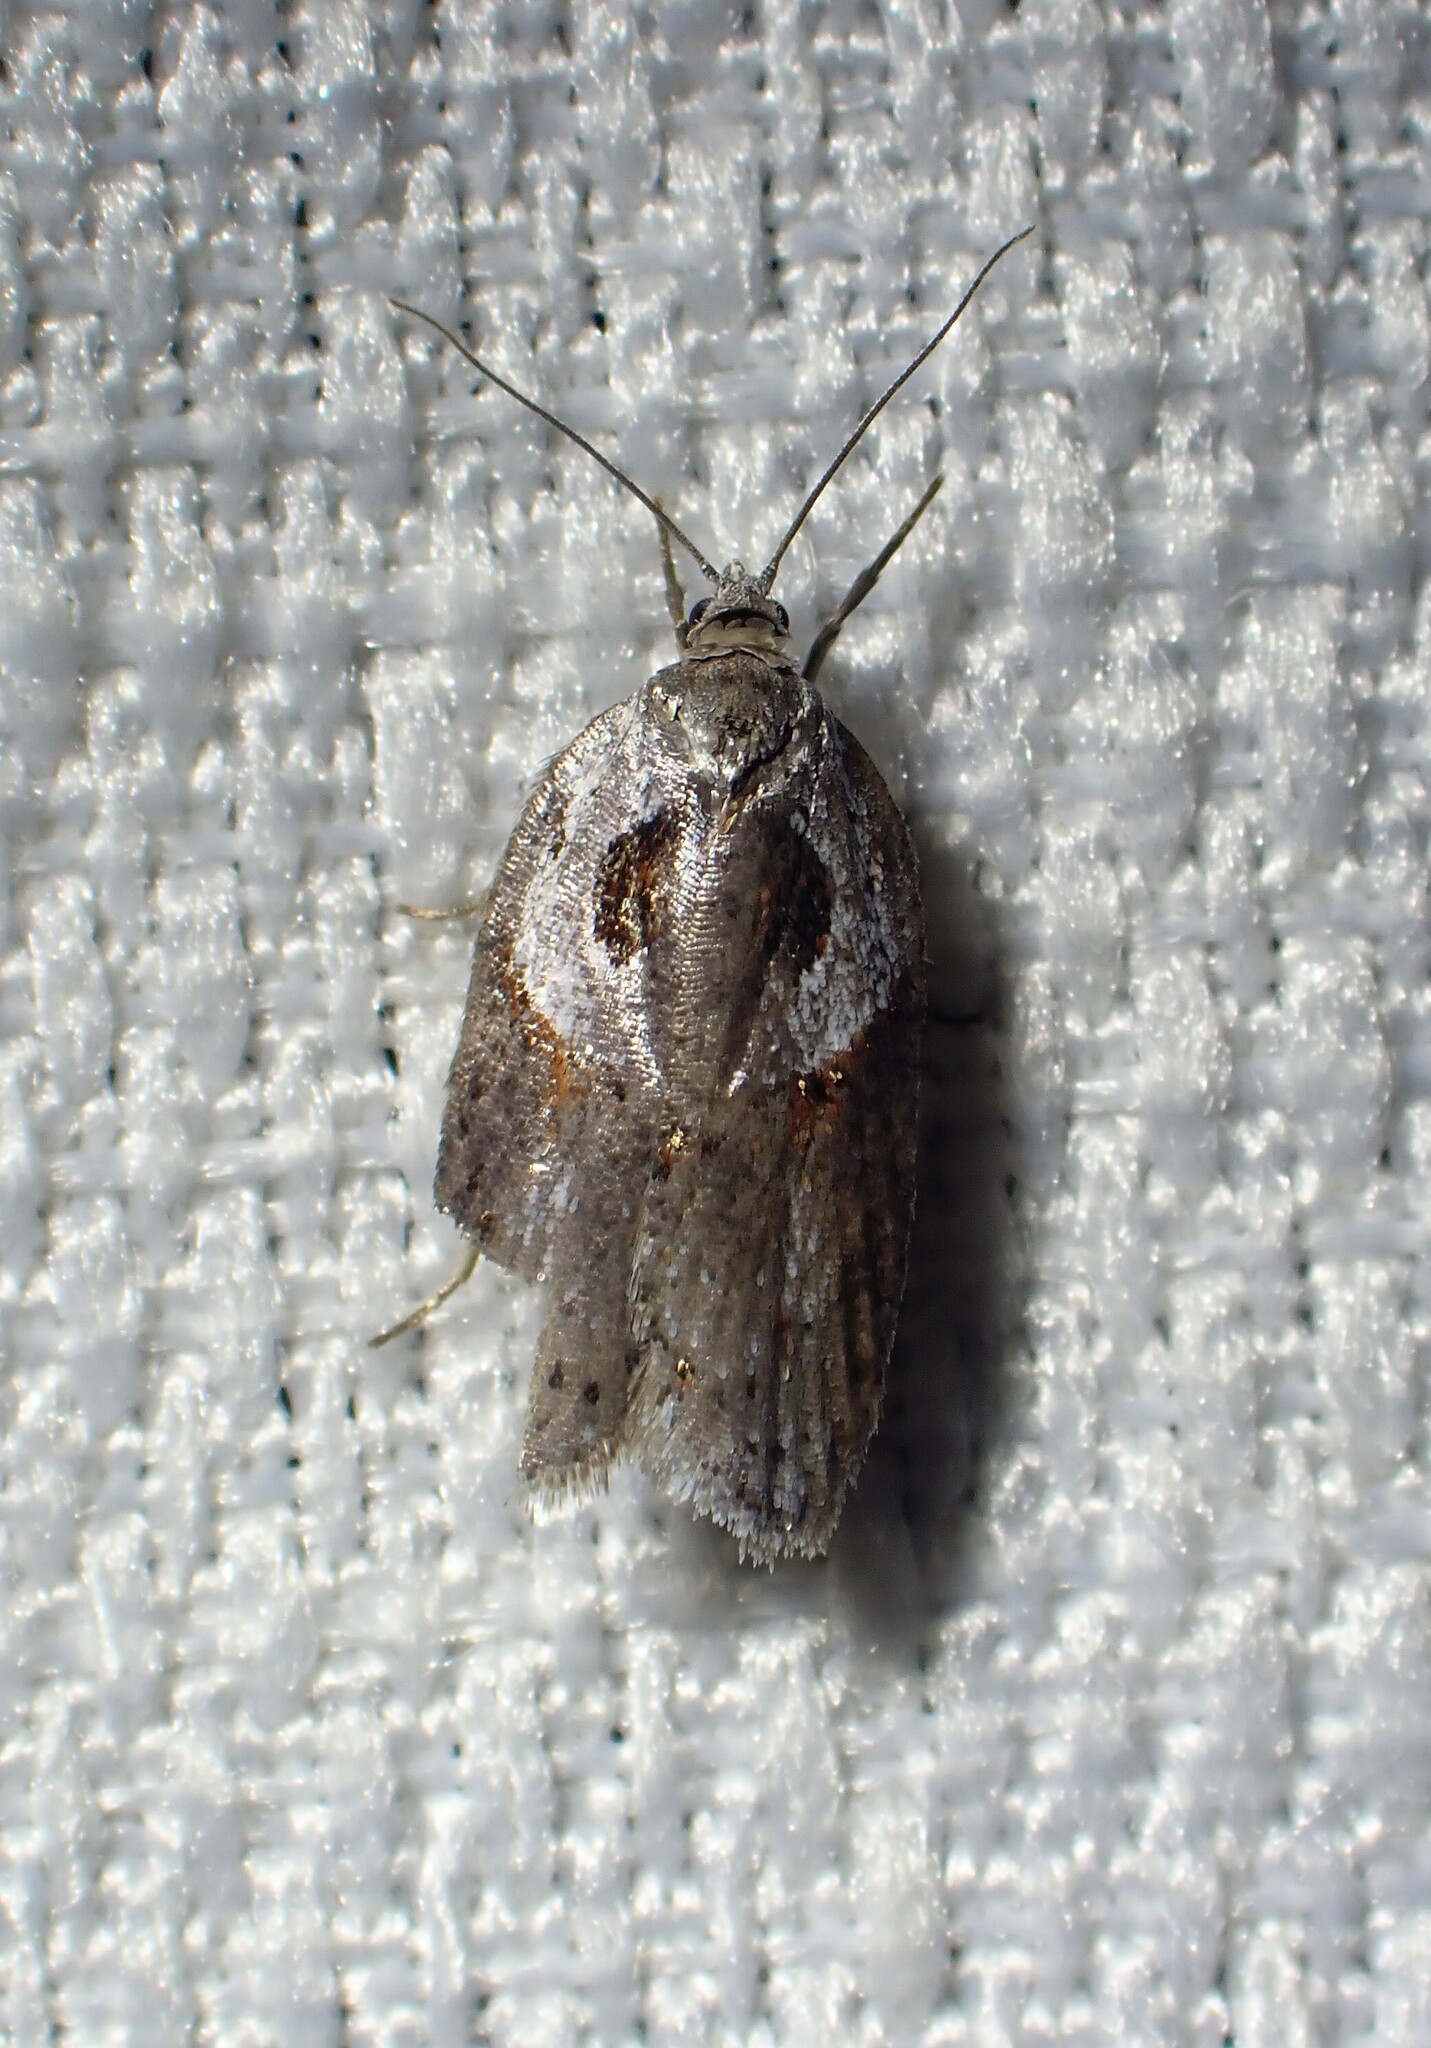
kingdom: Animalia
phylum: Arthropoda
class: Insecta
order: Lepidoptera
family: Tortricidae
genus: Acleris
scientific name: Acleris maculidorsana
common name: Stained-back leafroller moth
